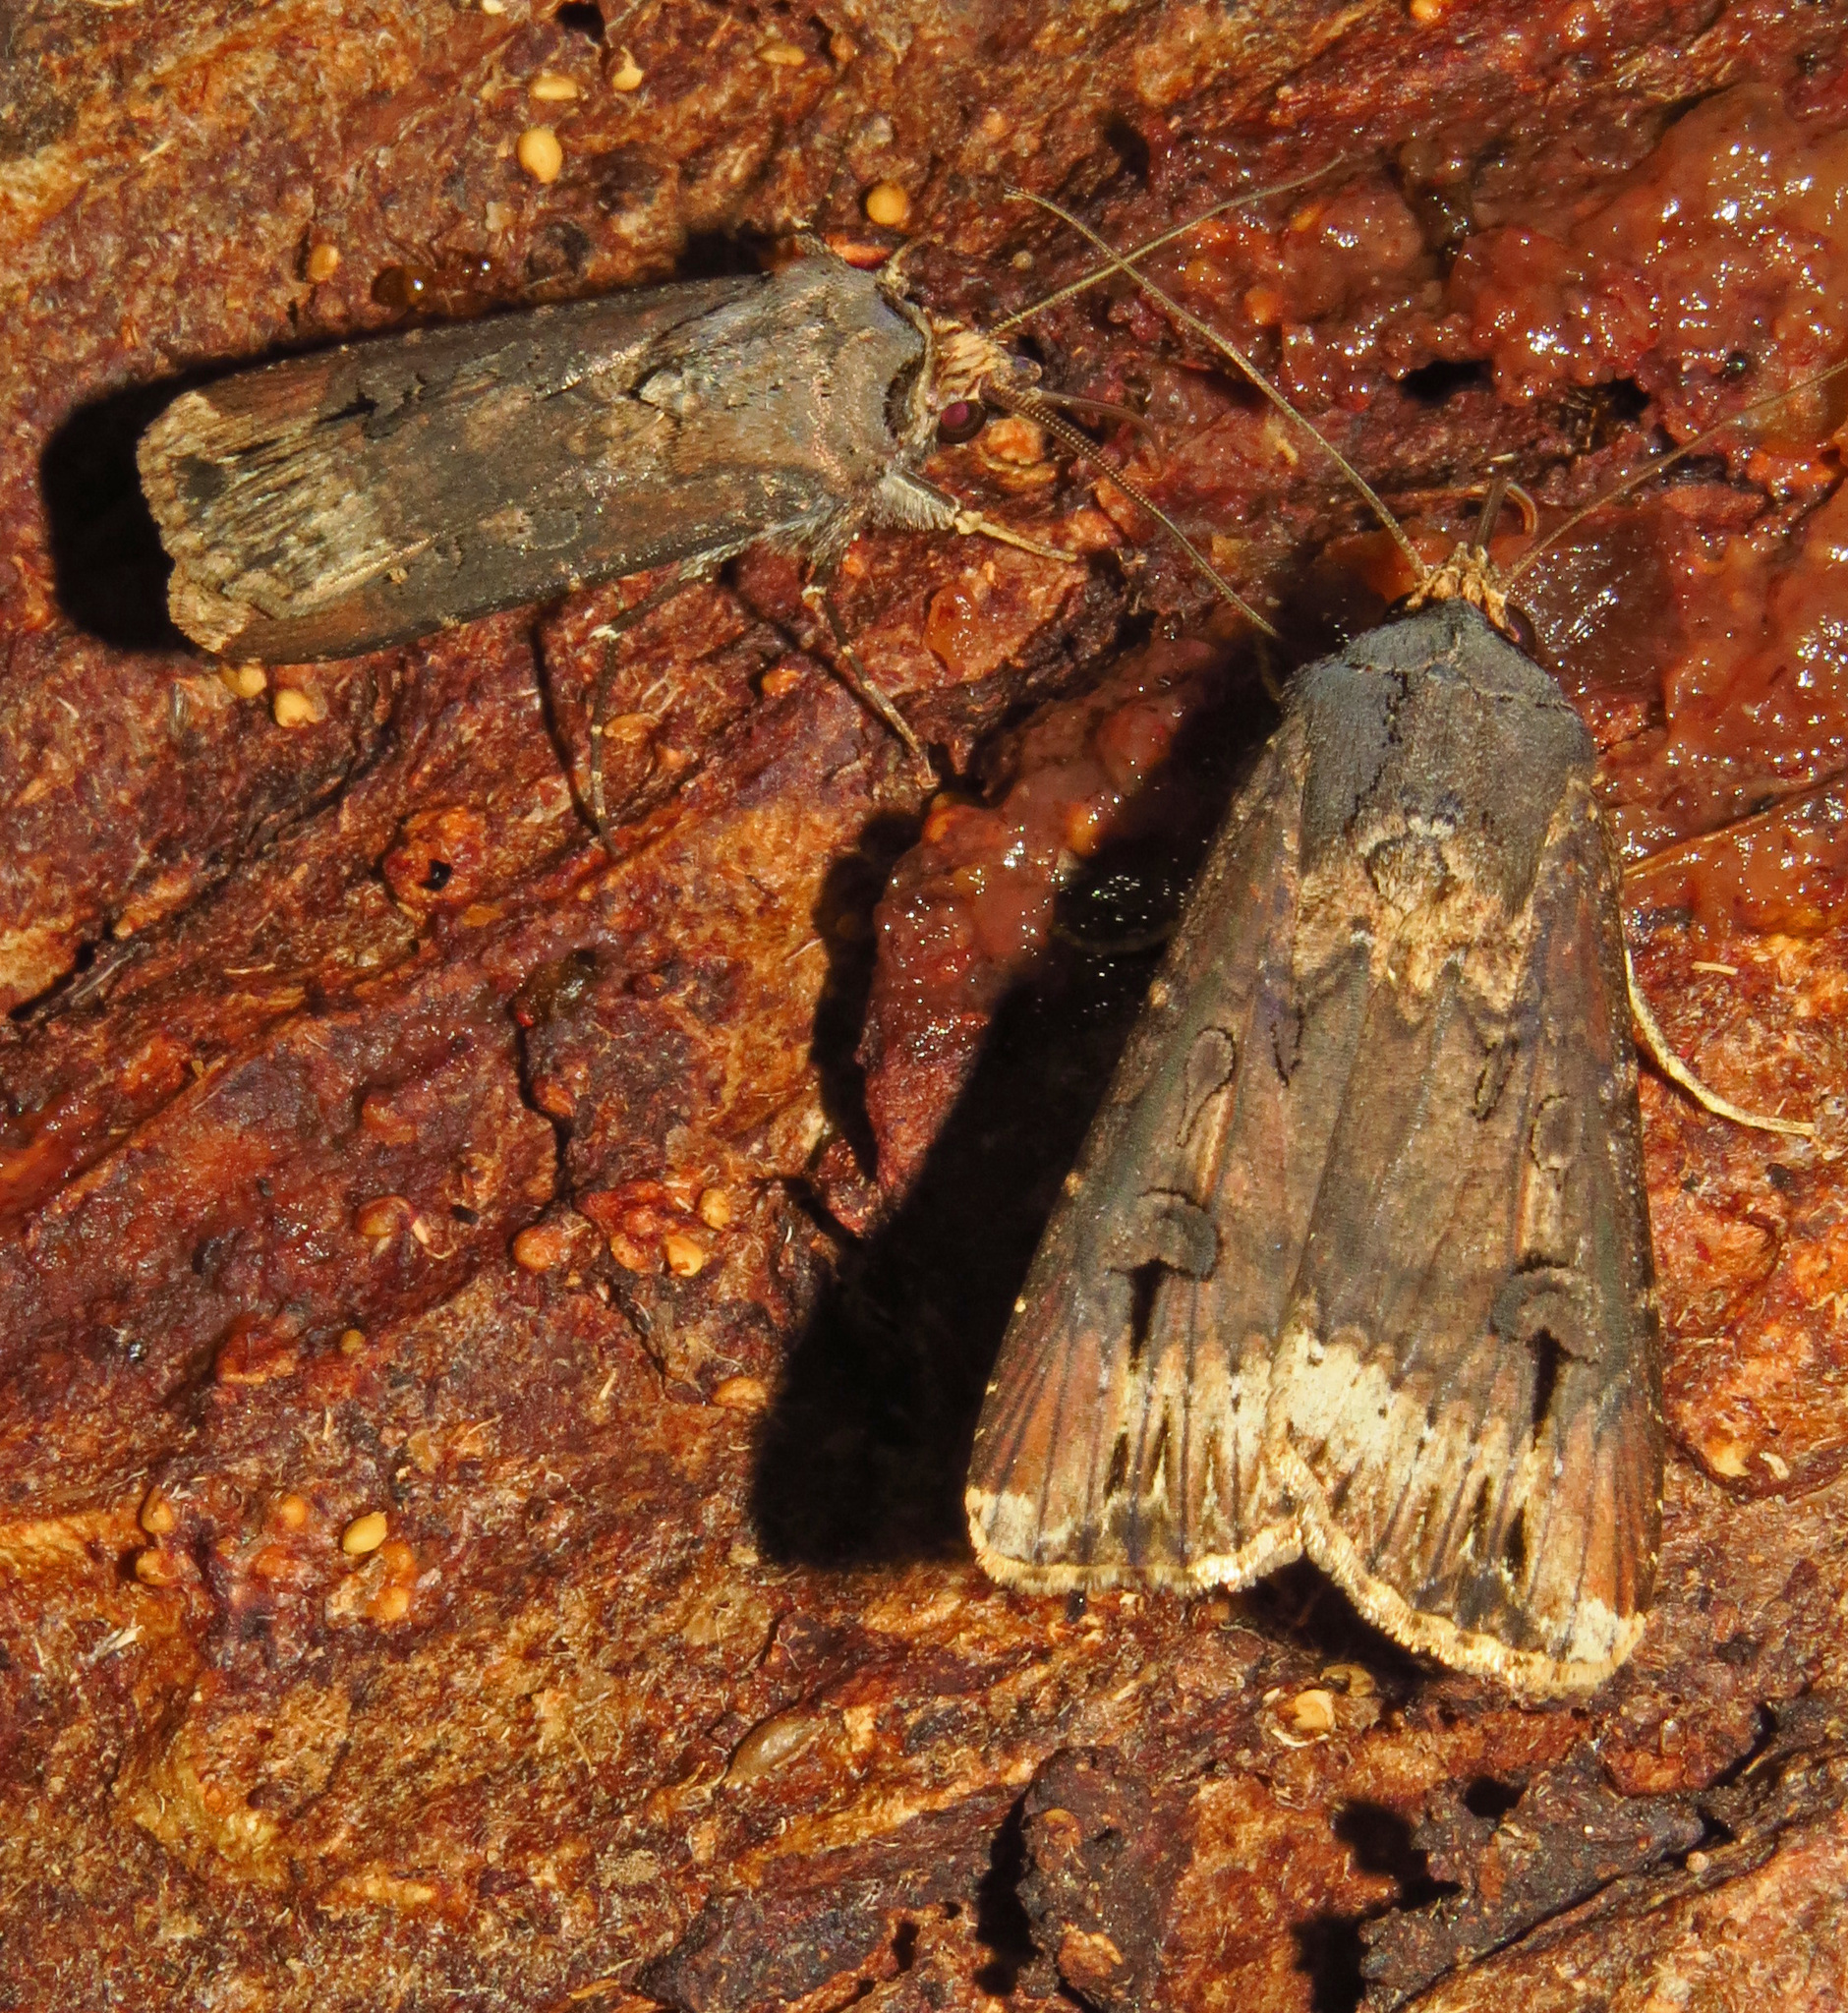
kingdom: Animalia
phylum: Arthropoda
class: Insecta
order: Lepidoptera
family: Noctuidae
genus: Agrotis
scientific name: Agrotis ipsilon
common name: Dark sword-grass
